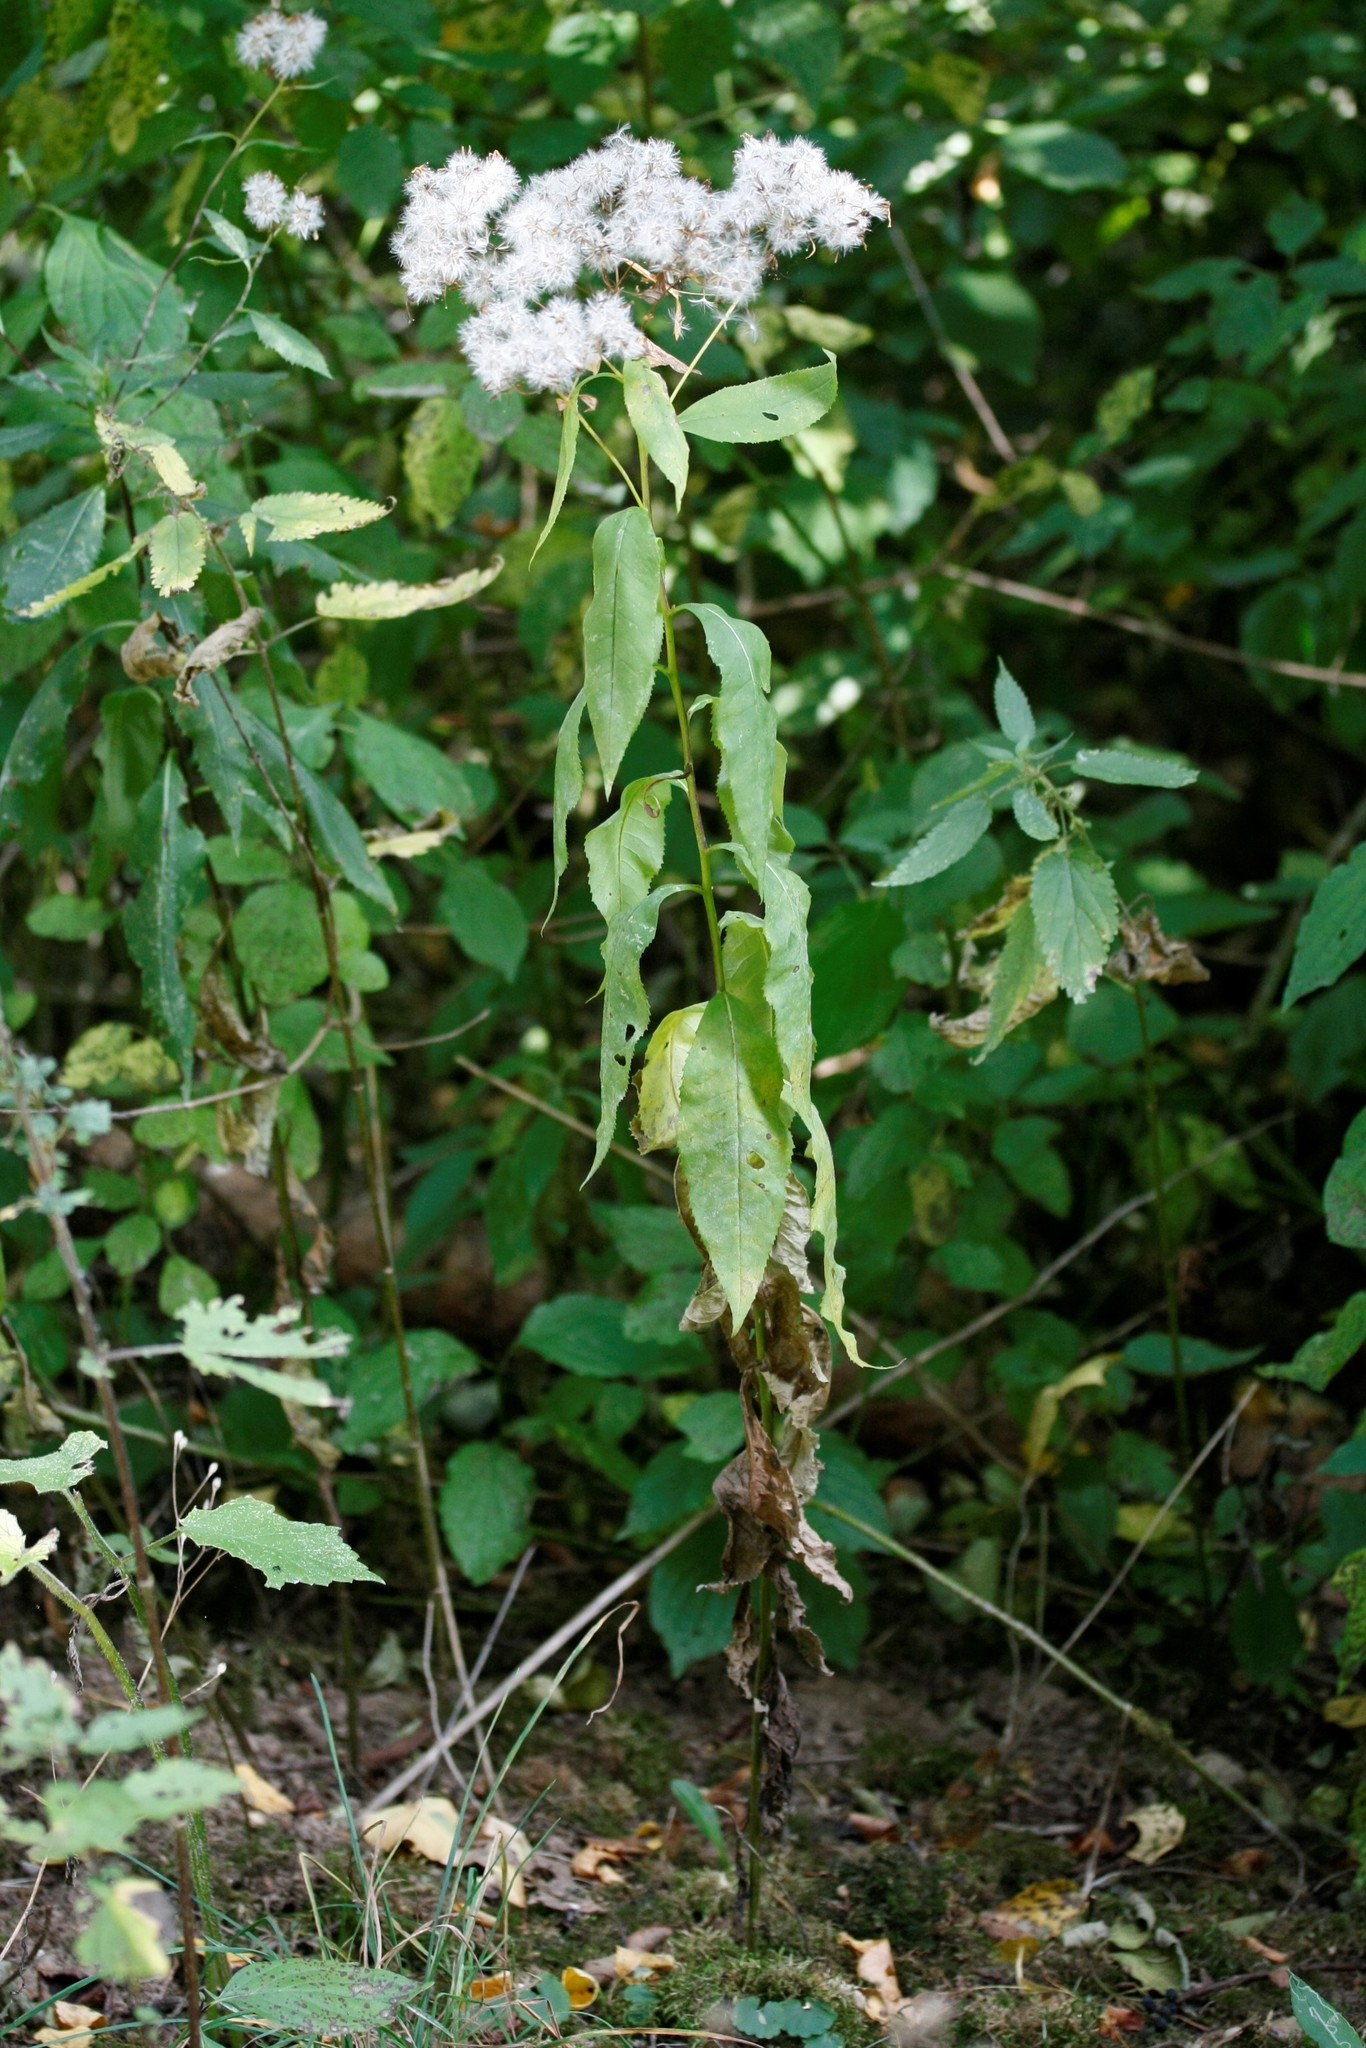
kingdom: Plantae
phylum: Tracheophyta
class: Magnoliopsida
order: Asterales
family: Asteraceae
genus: Senecio
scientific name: Senecio ovatus
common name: Wood ragwort
